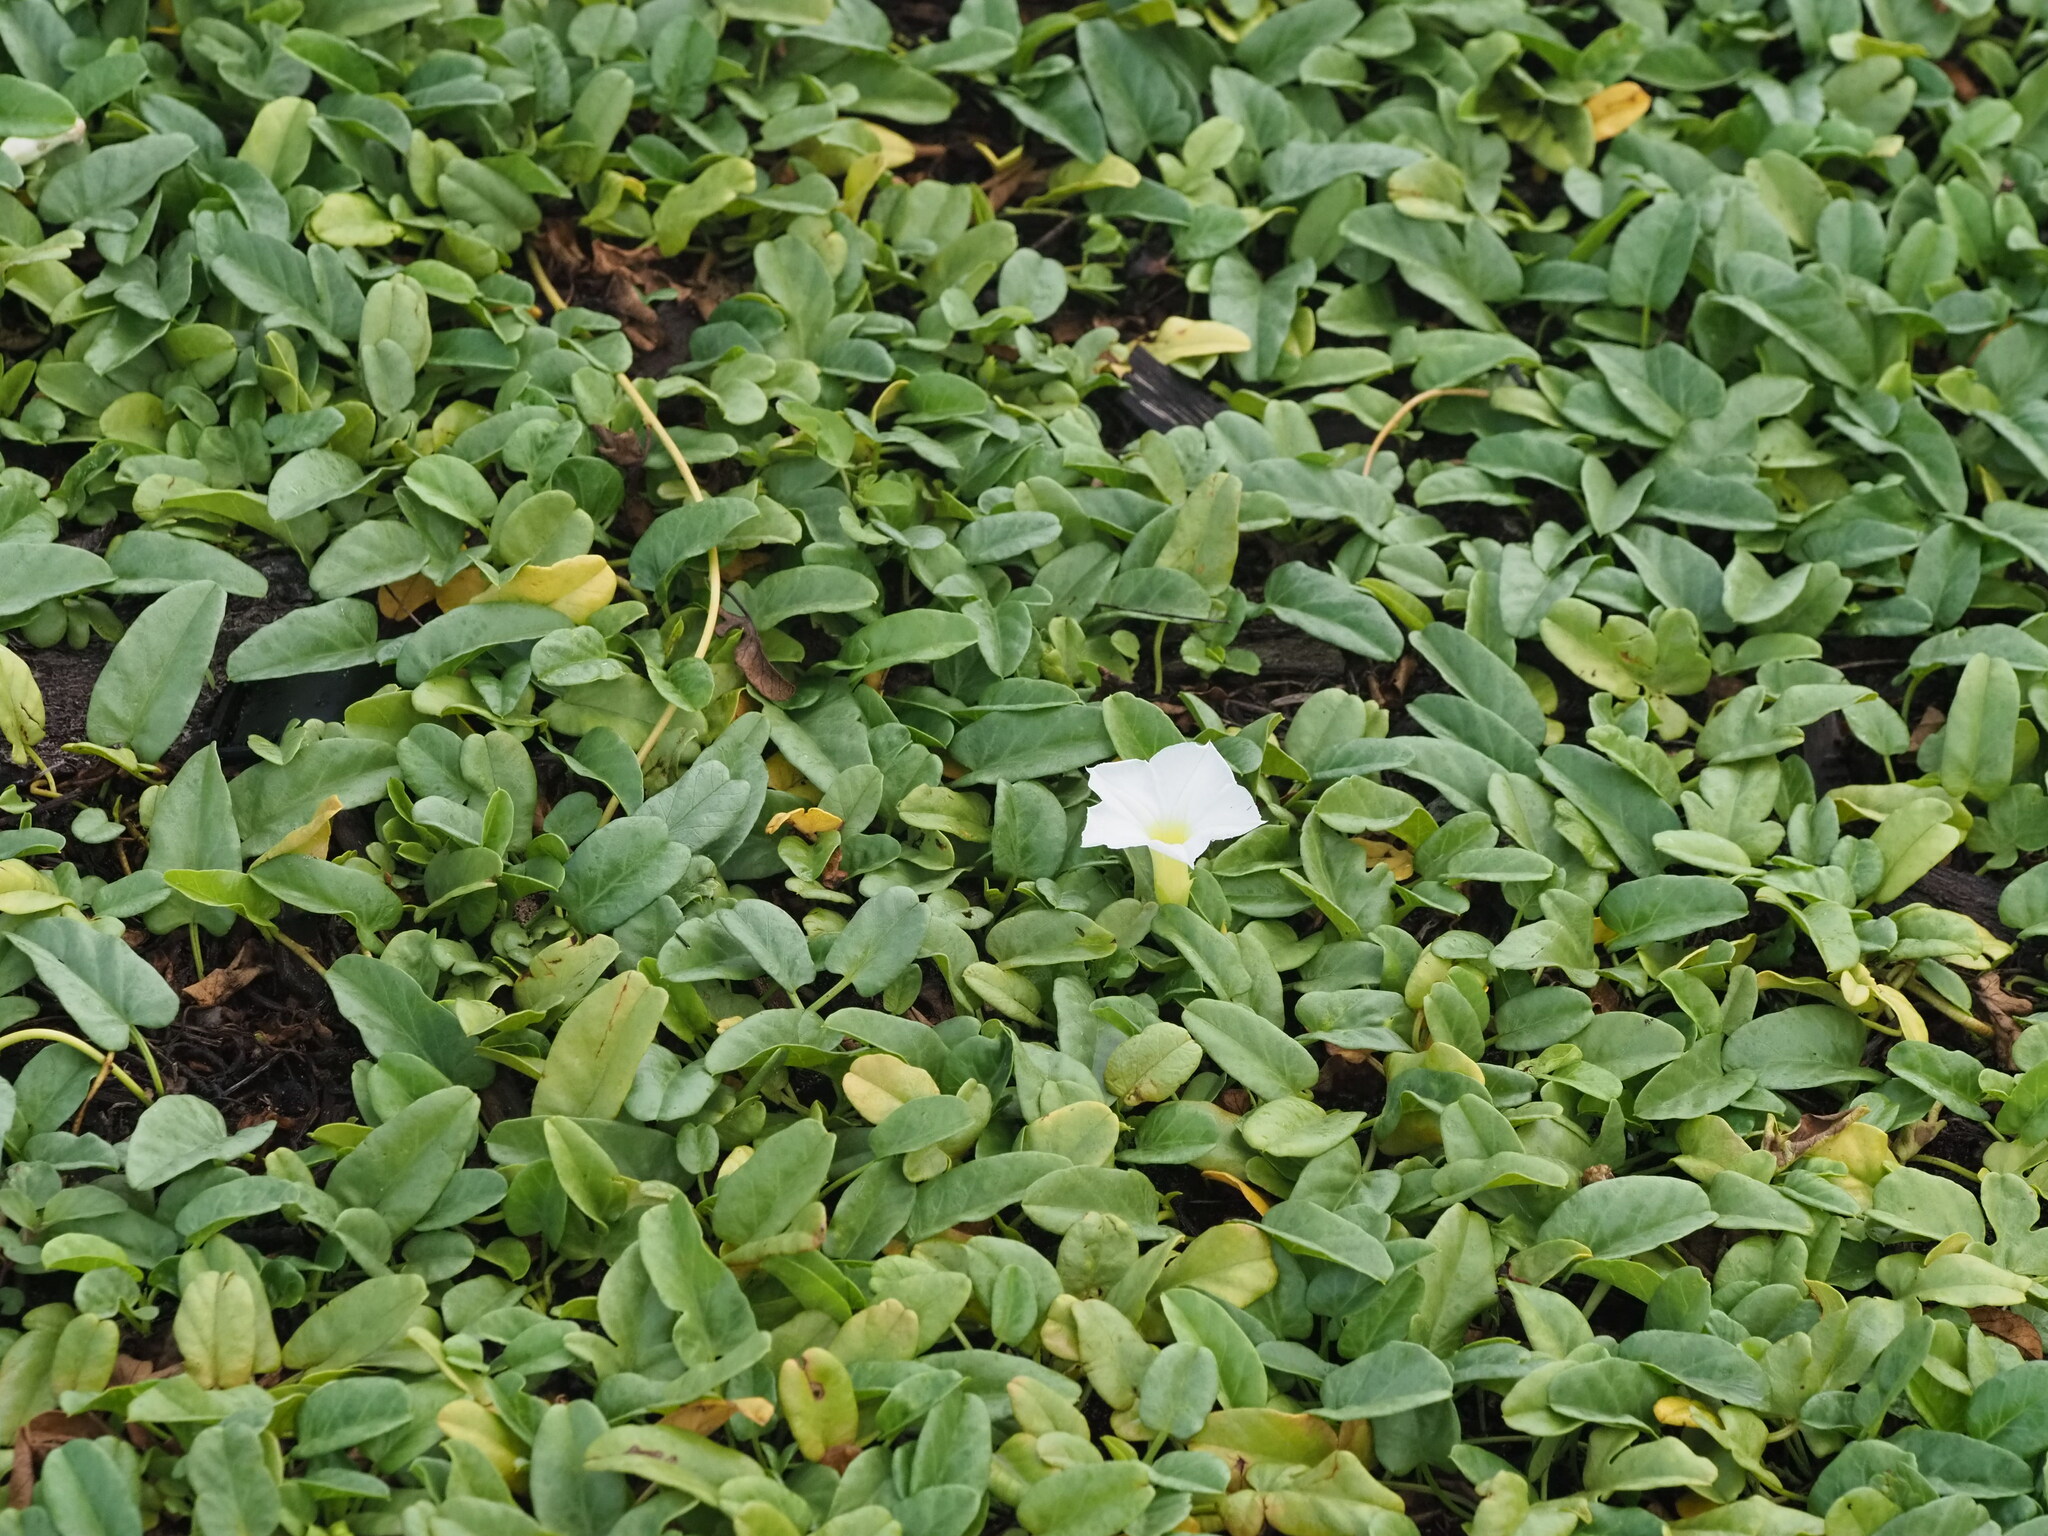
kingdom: Plantae
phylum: Tracheophyta
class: Magnoliopsida
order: Solanales
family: Convolvulaceae
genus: Ipomoea
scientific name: Ipomoea imperati
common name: Fiddle-leaf morning-glory
